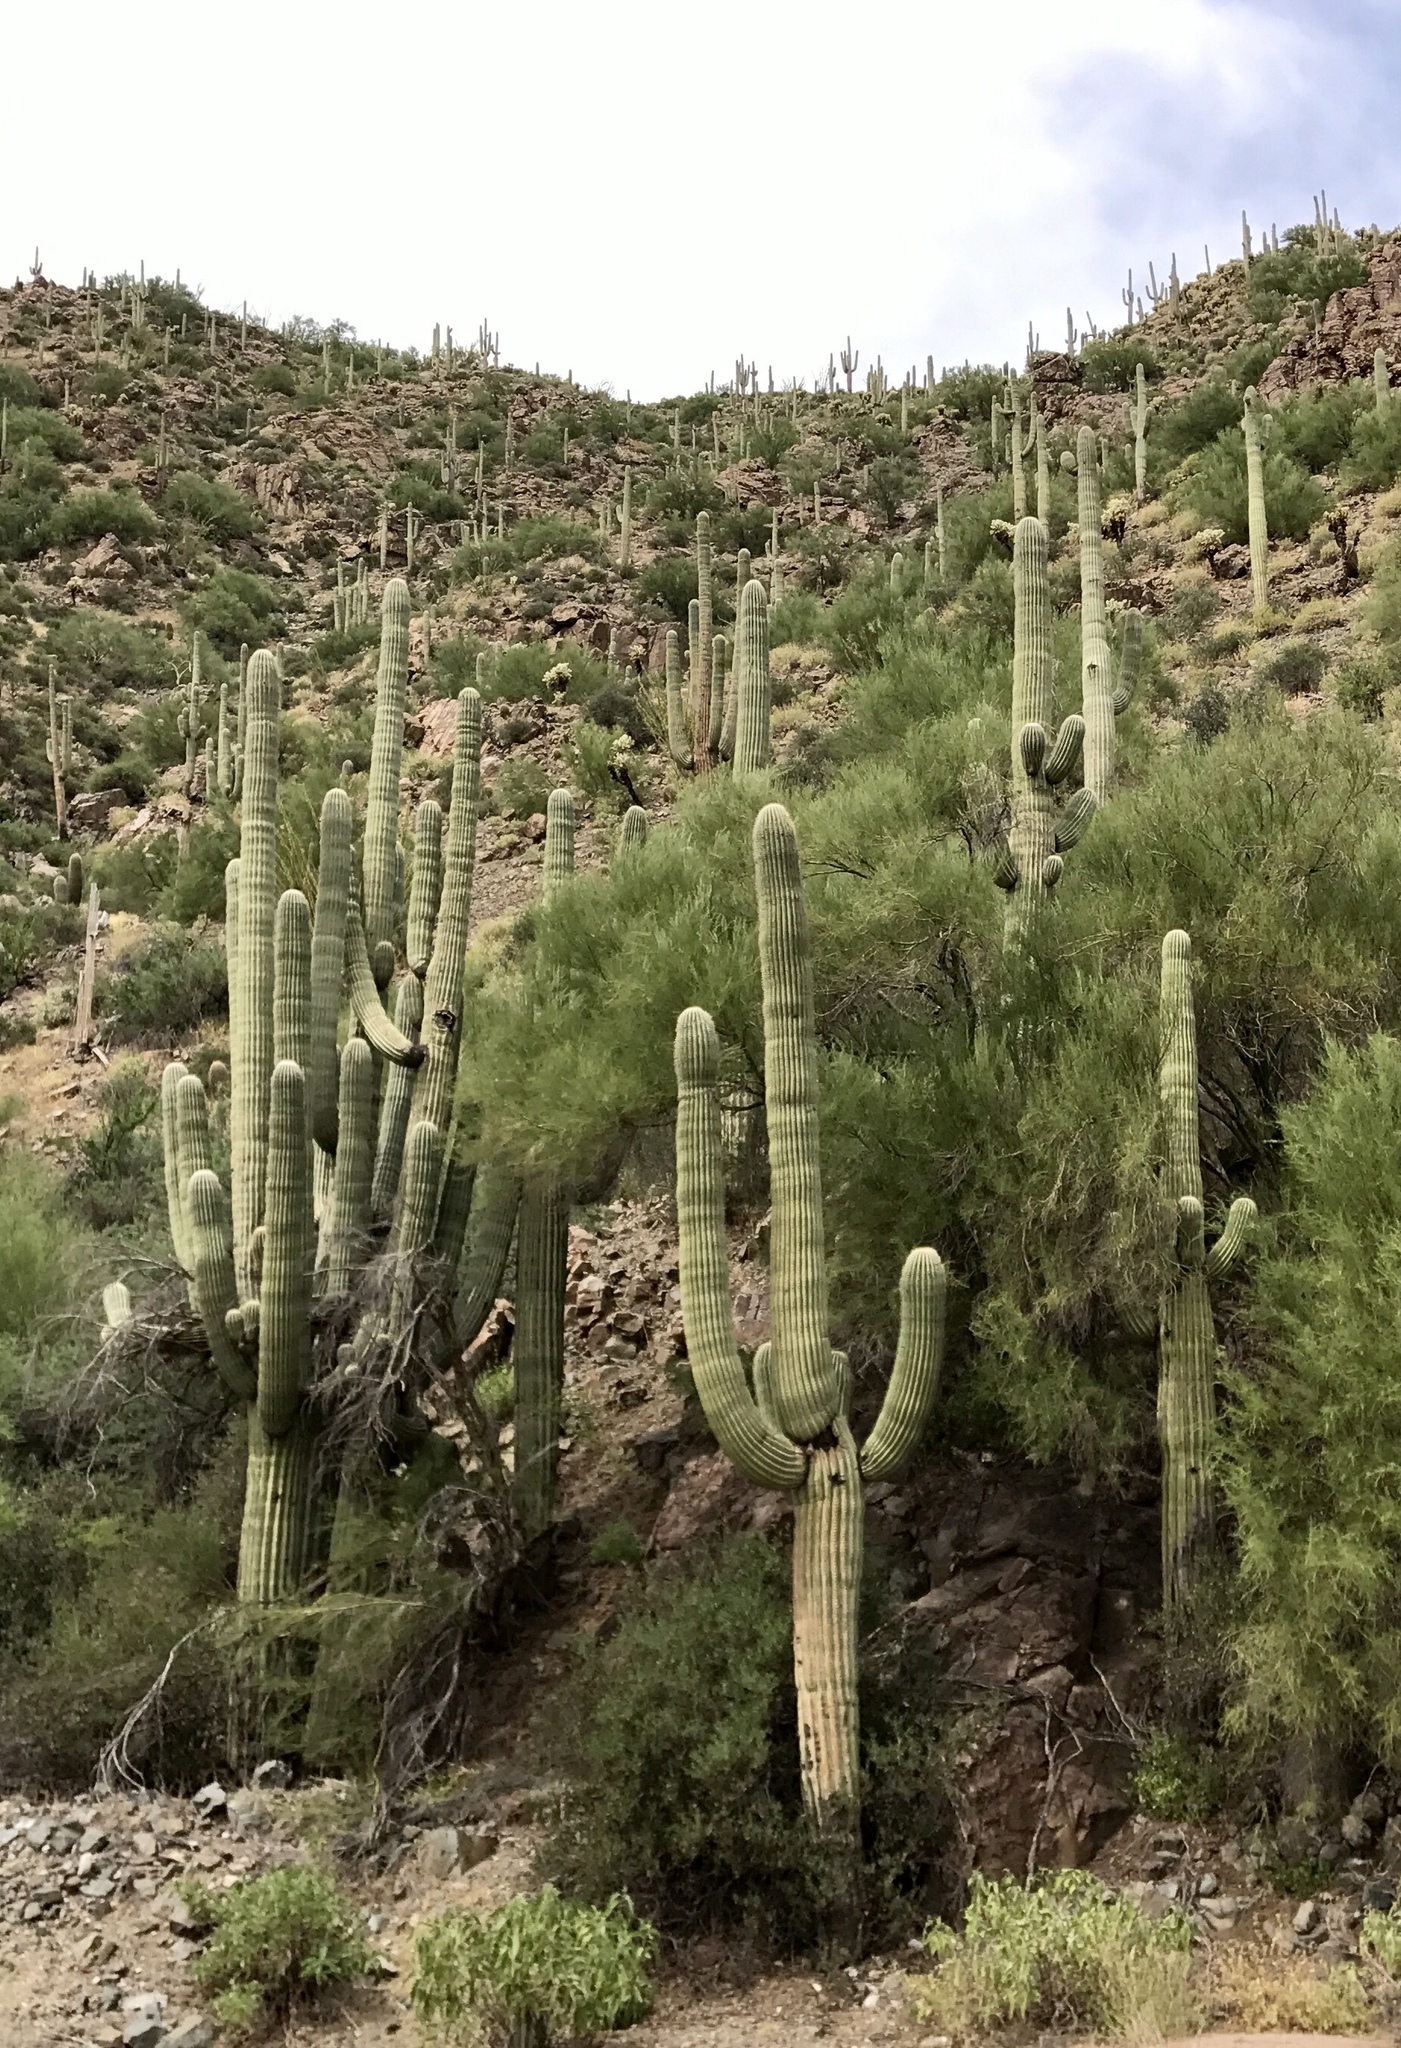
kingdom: Plantae
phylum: Tracheophyta
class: Magnoliopsida
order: Caryophyllales
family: Cactaceae
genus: Carnegiea
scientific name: Carnegiea gigantea
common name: Saguaro
